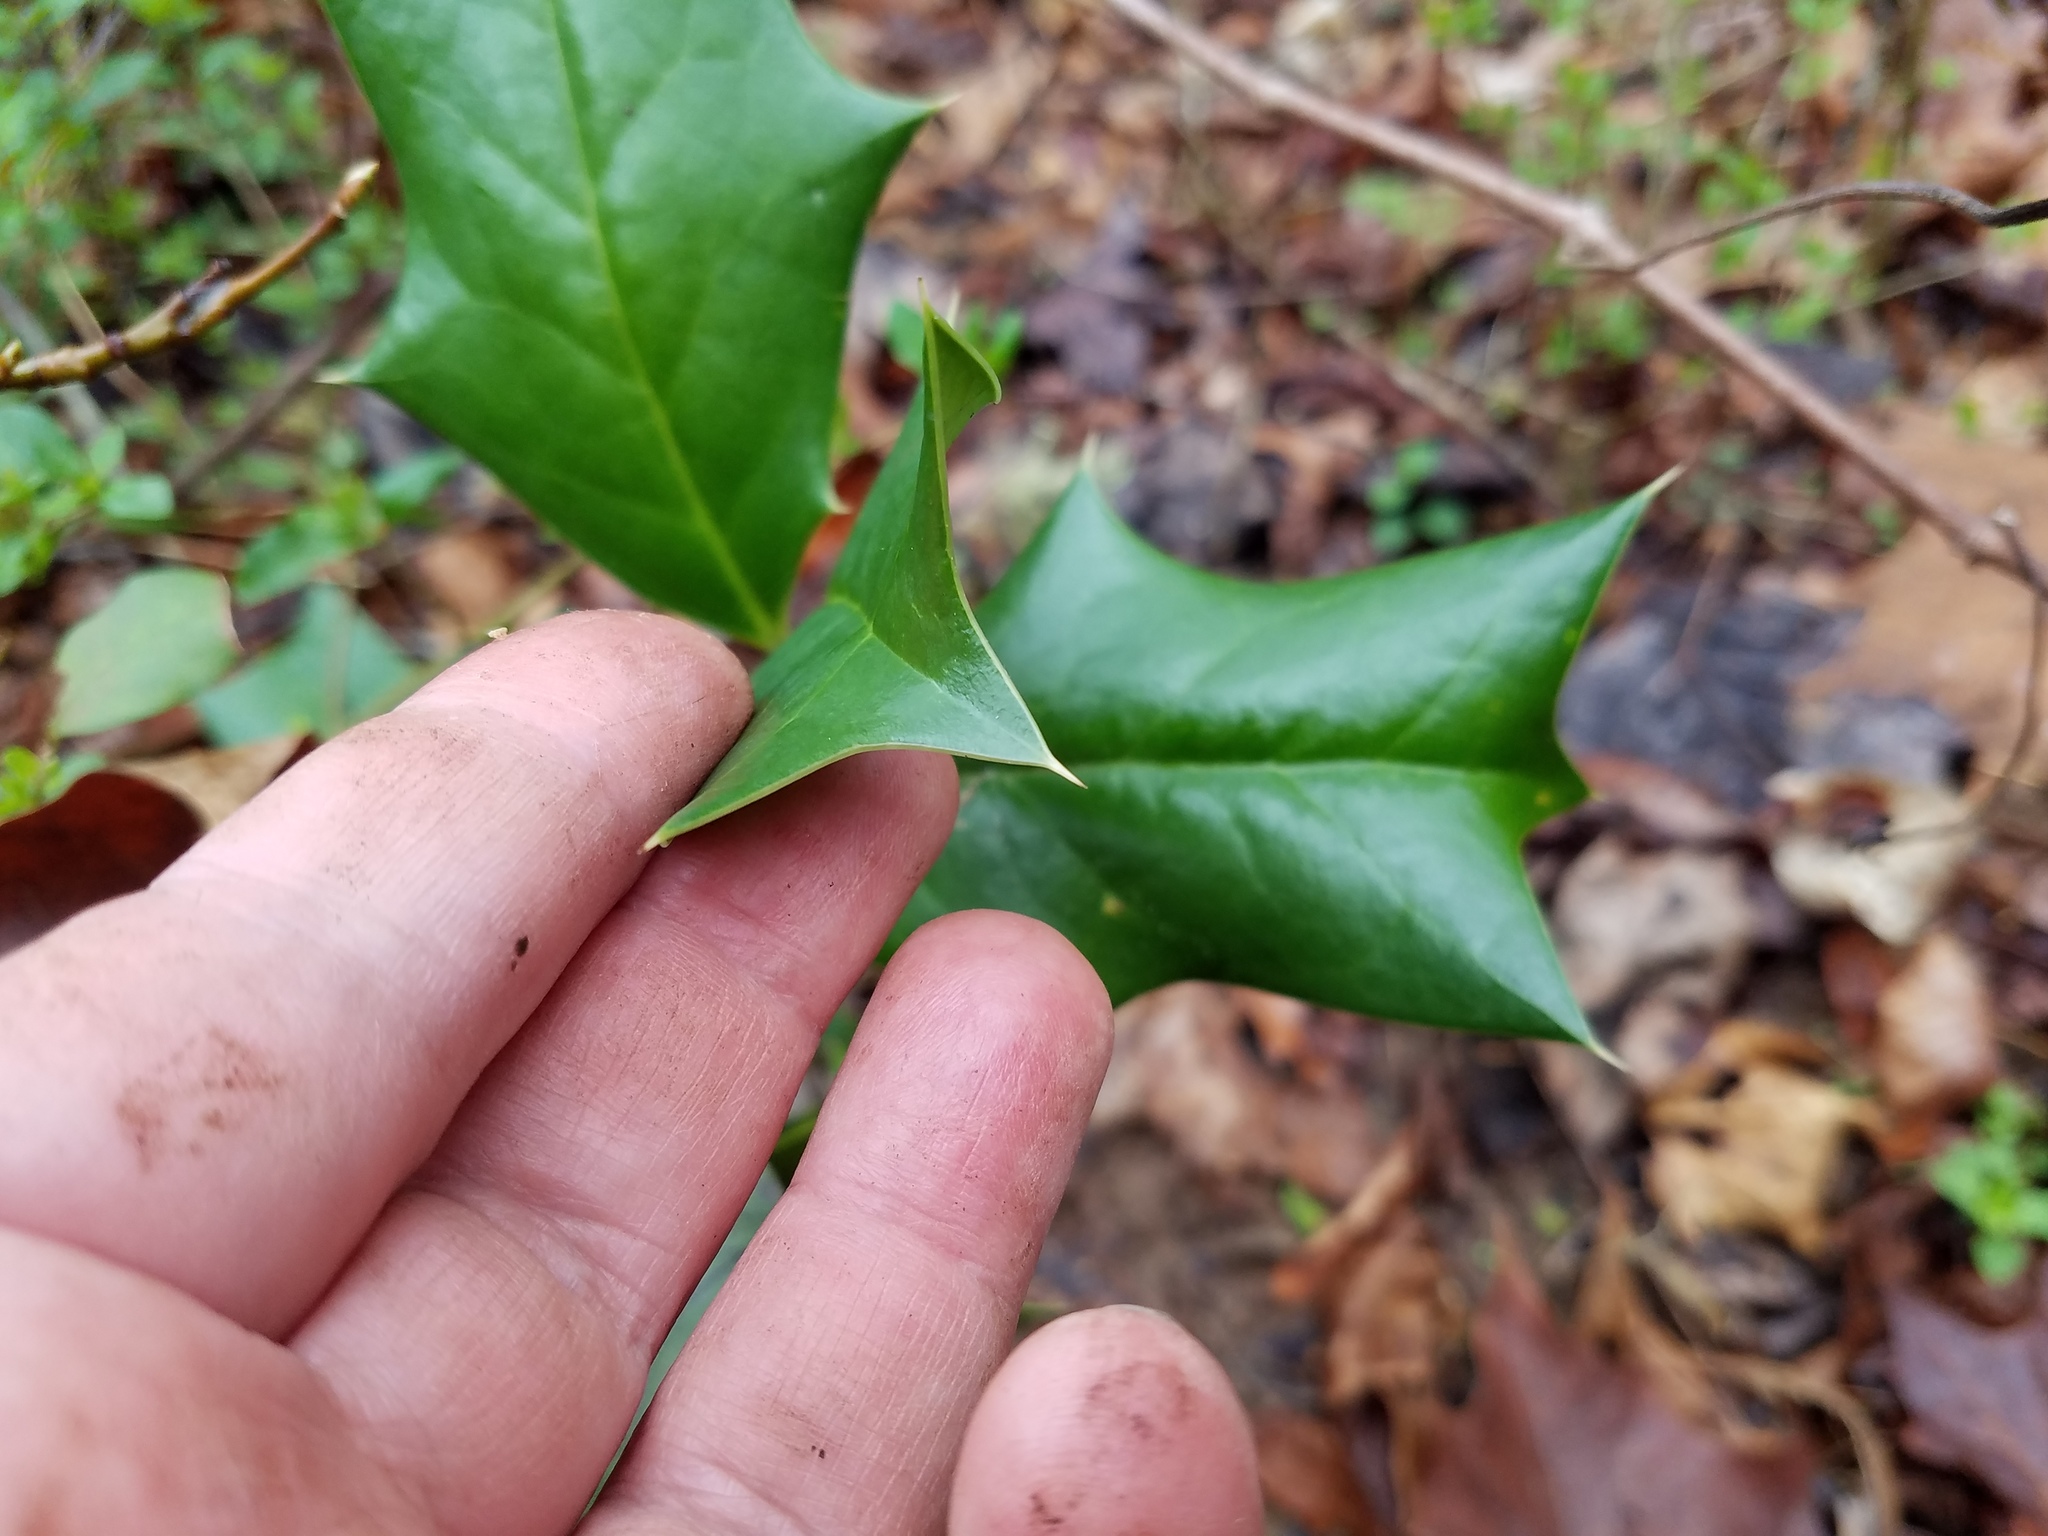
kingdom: Plantae
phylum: Tracheophyta
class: Magnoliopsida
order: Aquifoliales
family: Aquifoliaceae
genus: Ilex
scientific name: Ilex cornuta
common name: Chinese holly
